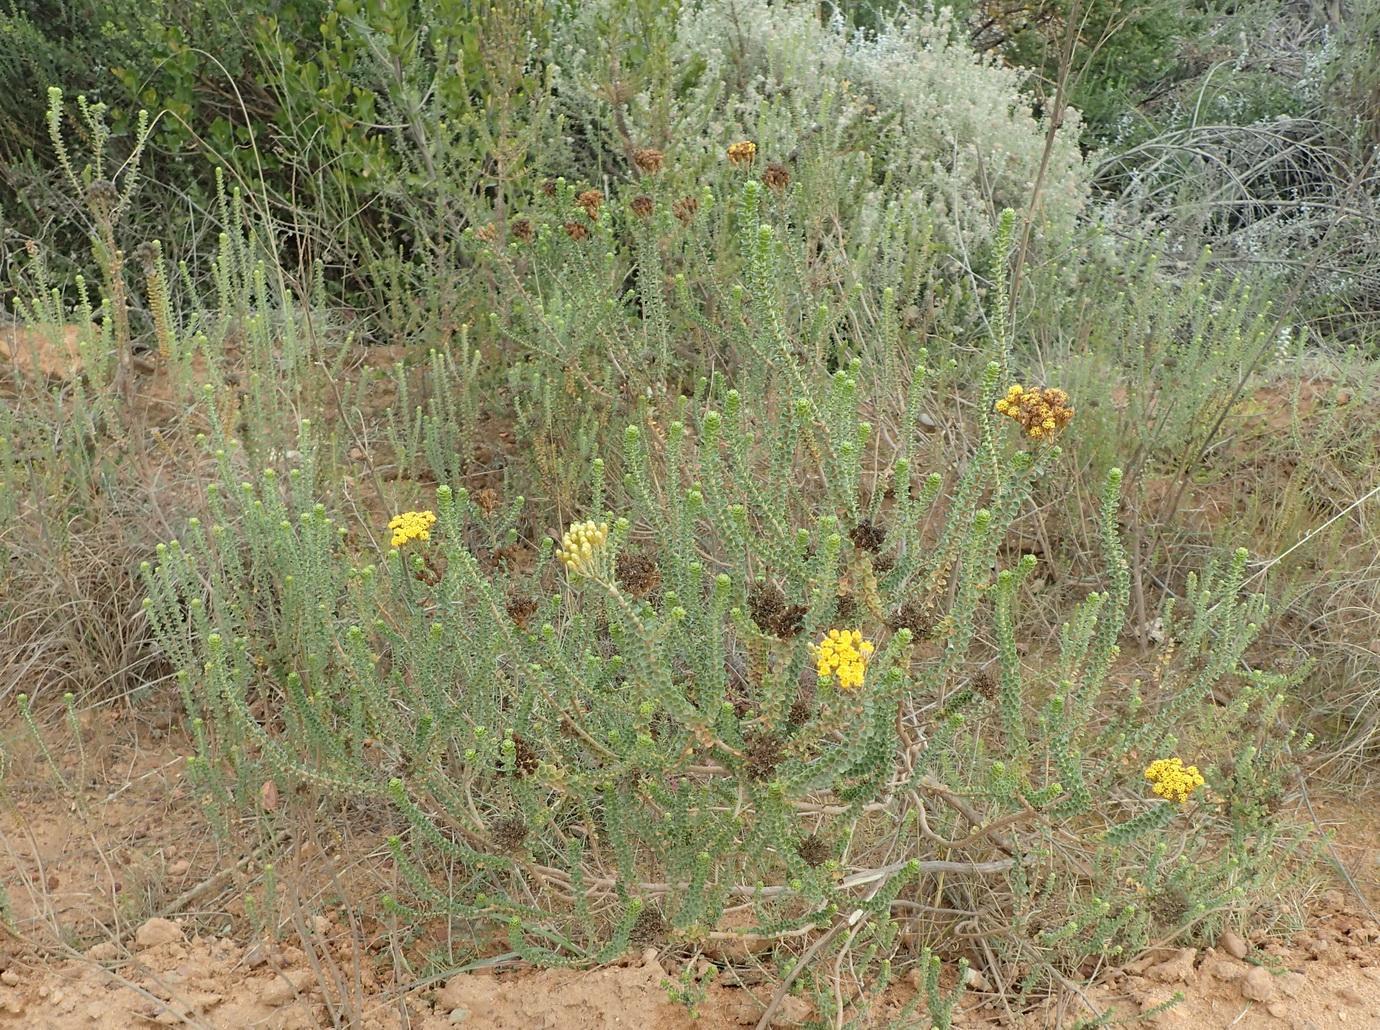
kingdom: Plantae
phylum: Tracheophyta
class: Magnoliopsida
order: Asterales
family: Asteraceae
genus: Athanasia
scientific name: Athanasia quinquedentata
